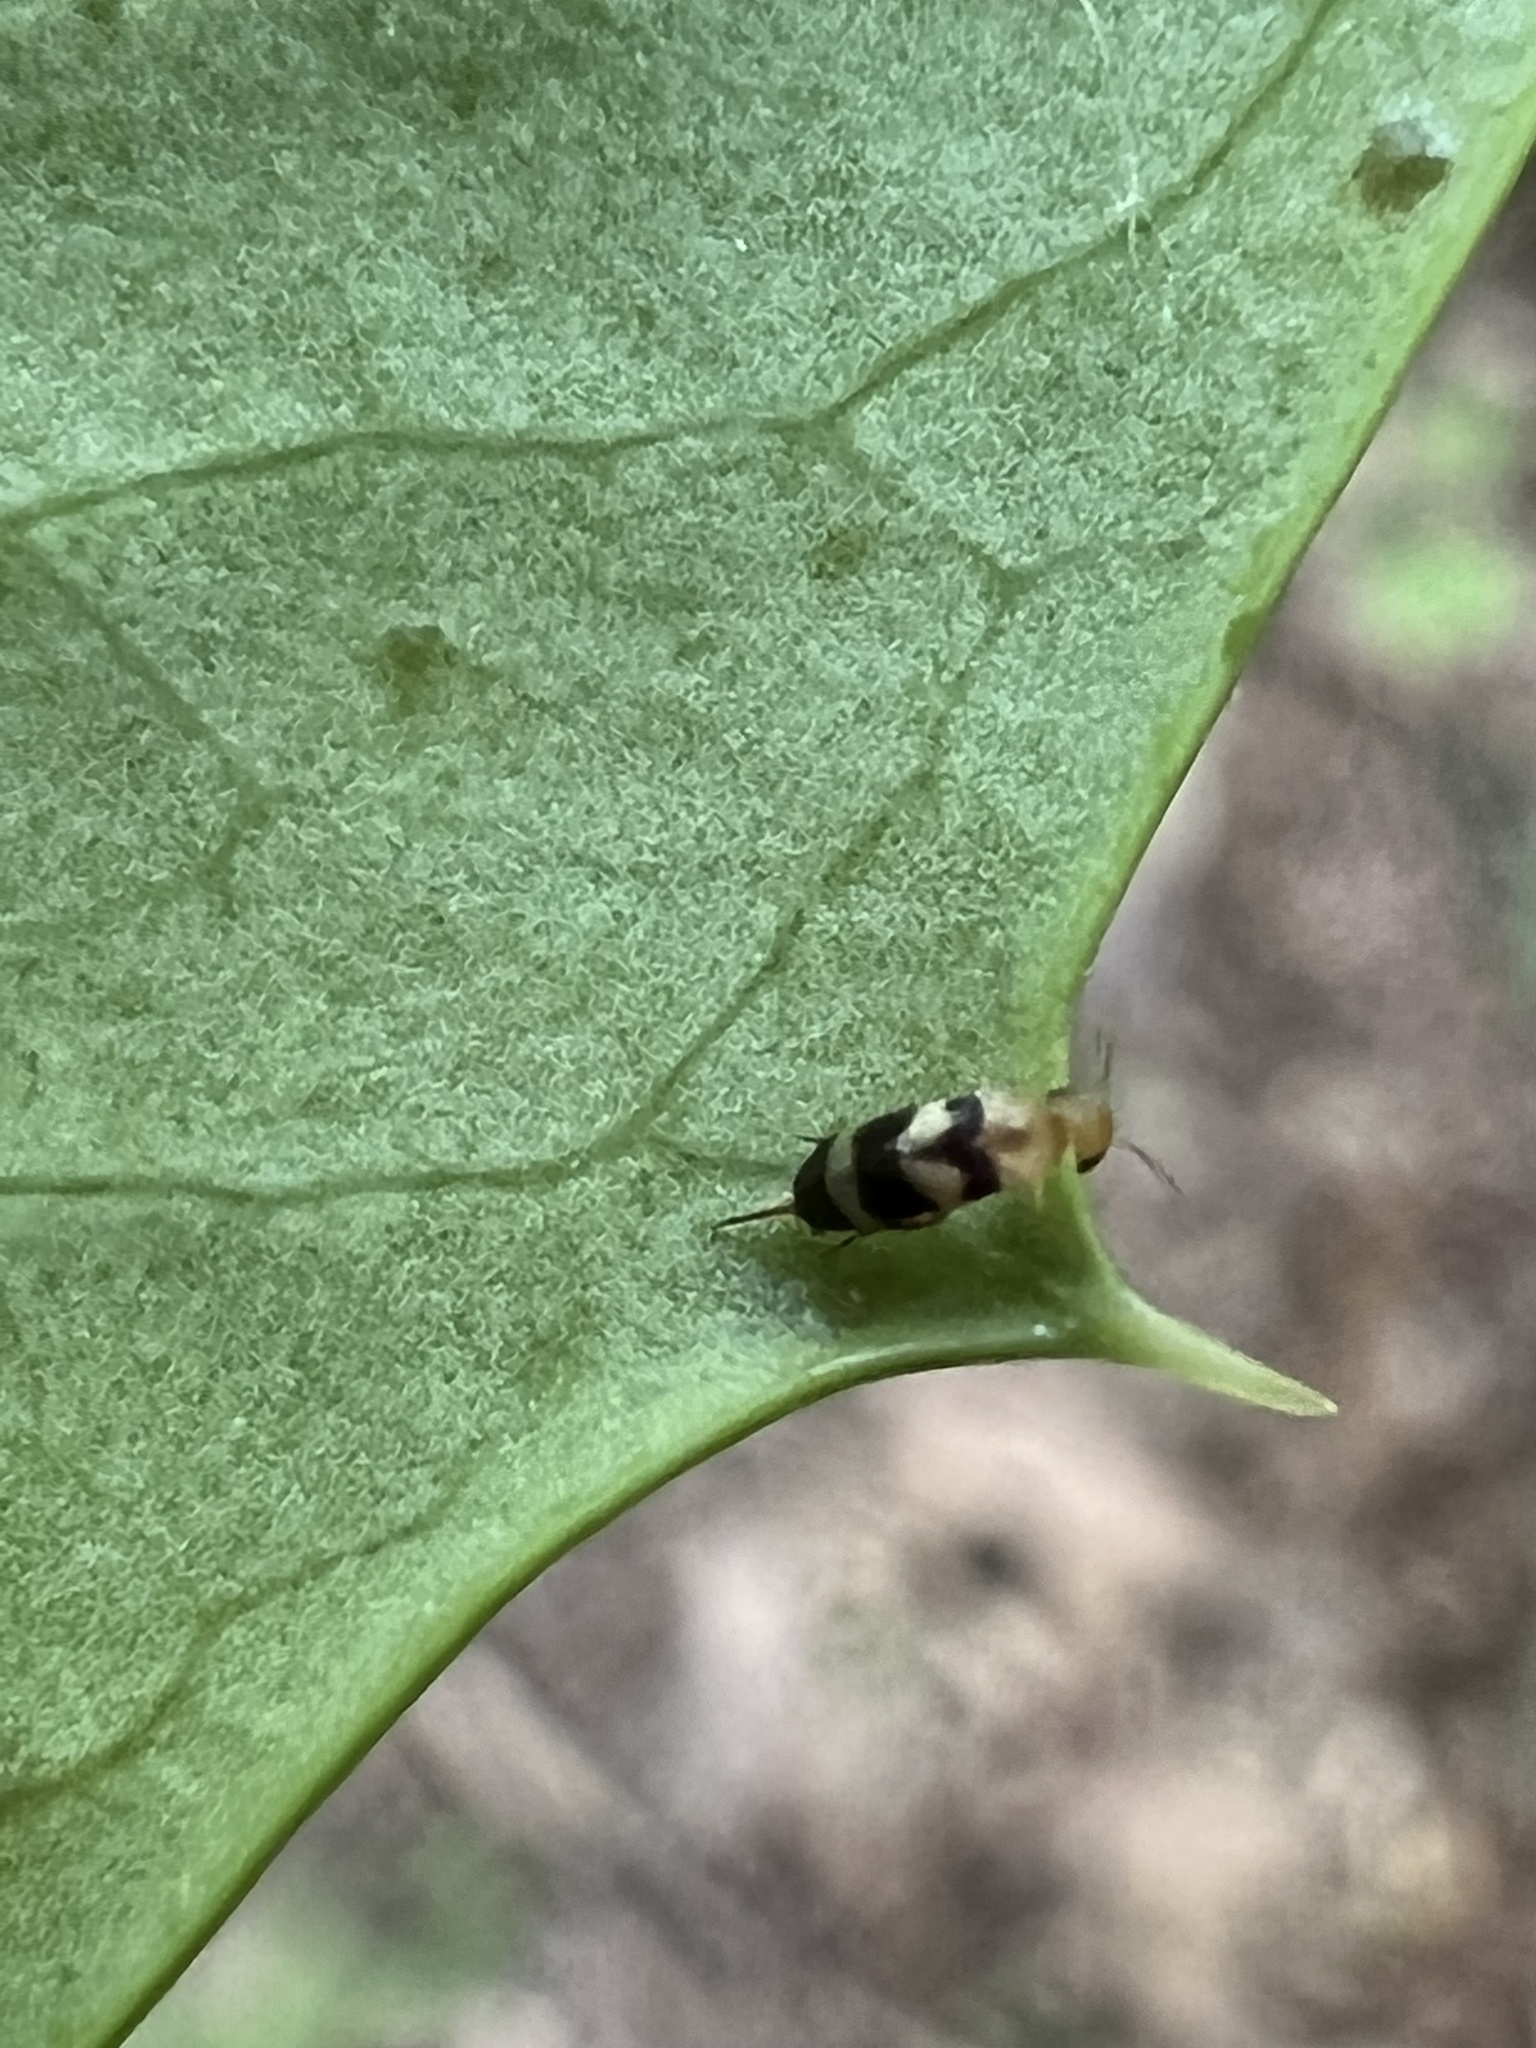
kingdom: Animalia
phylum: Arthropoda
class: Insecta
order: Coleoptera
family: Mordellidae
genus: Mordellistena
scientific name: Mordellistena trifasciata
